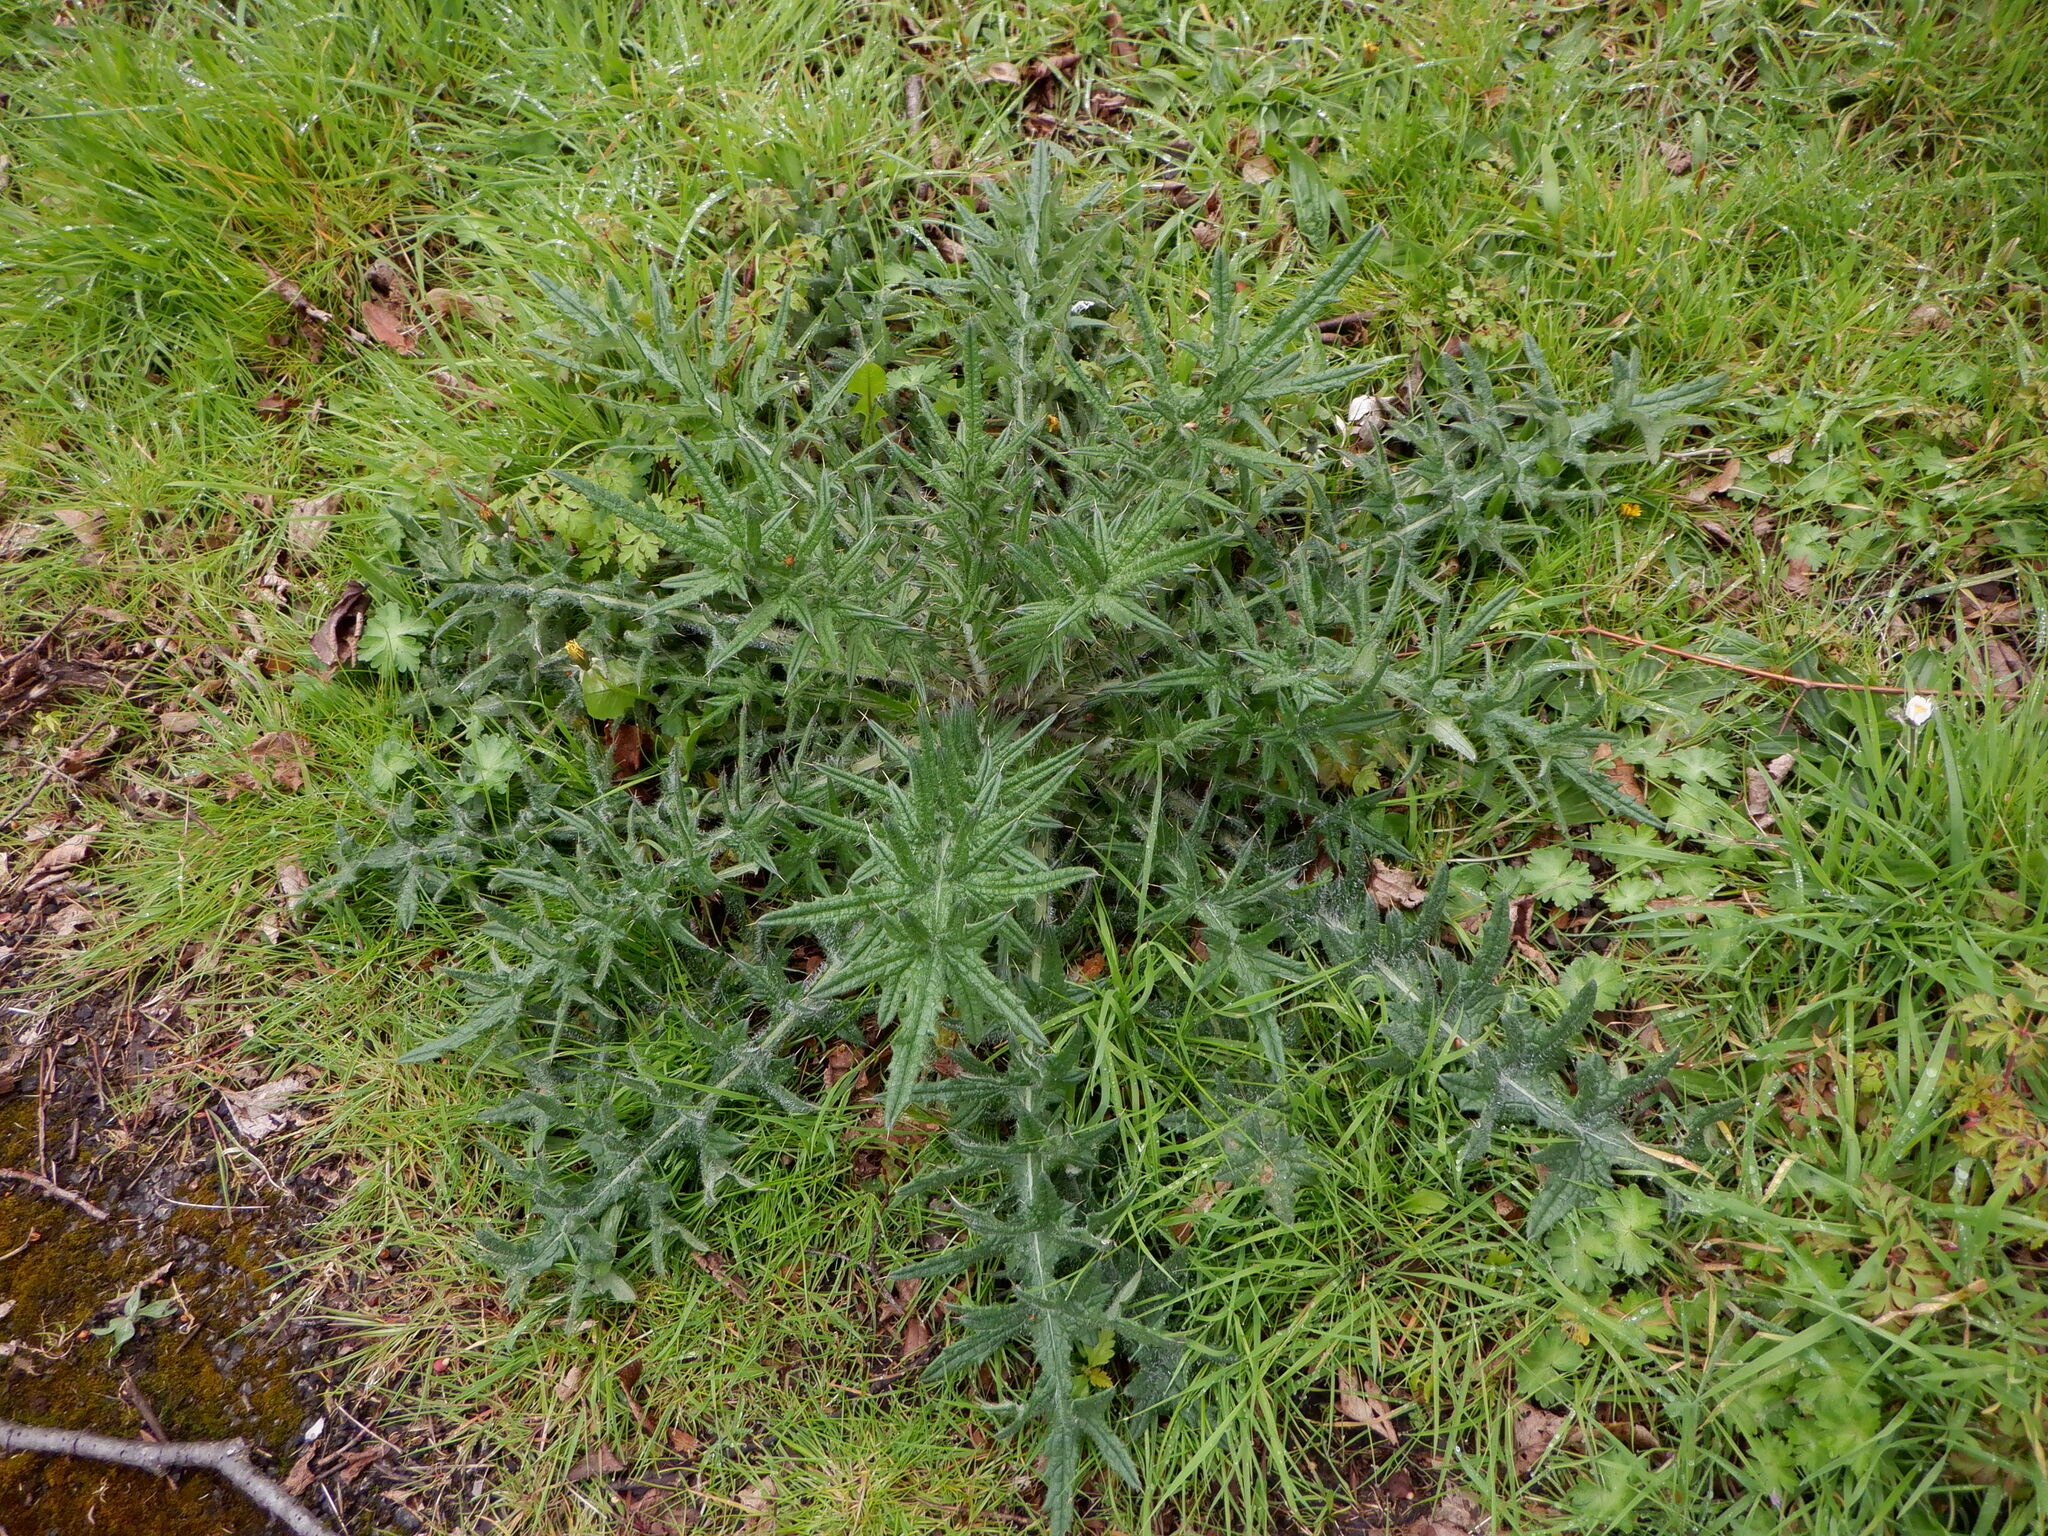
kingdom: Plantae
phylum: Tracheophyta
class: Magnoliopsida
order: Asterales
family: Asteraceae
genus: Cirsium
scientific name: Cirsium vulgare
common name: Bull thistle
